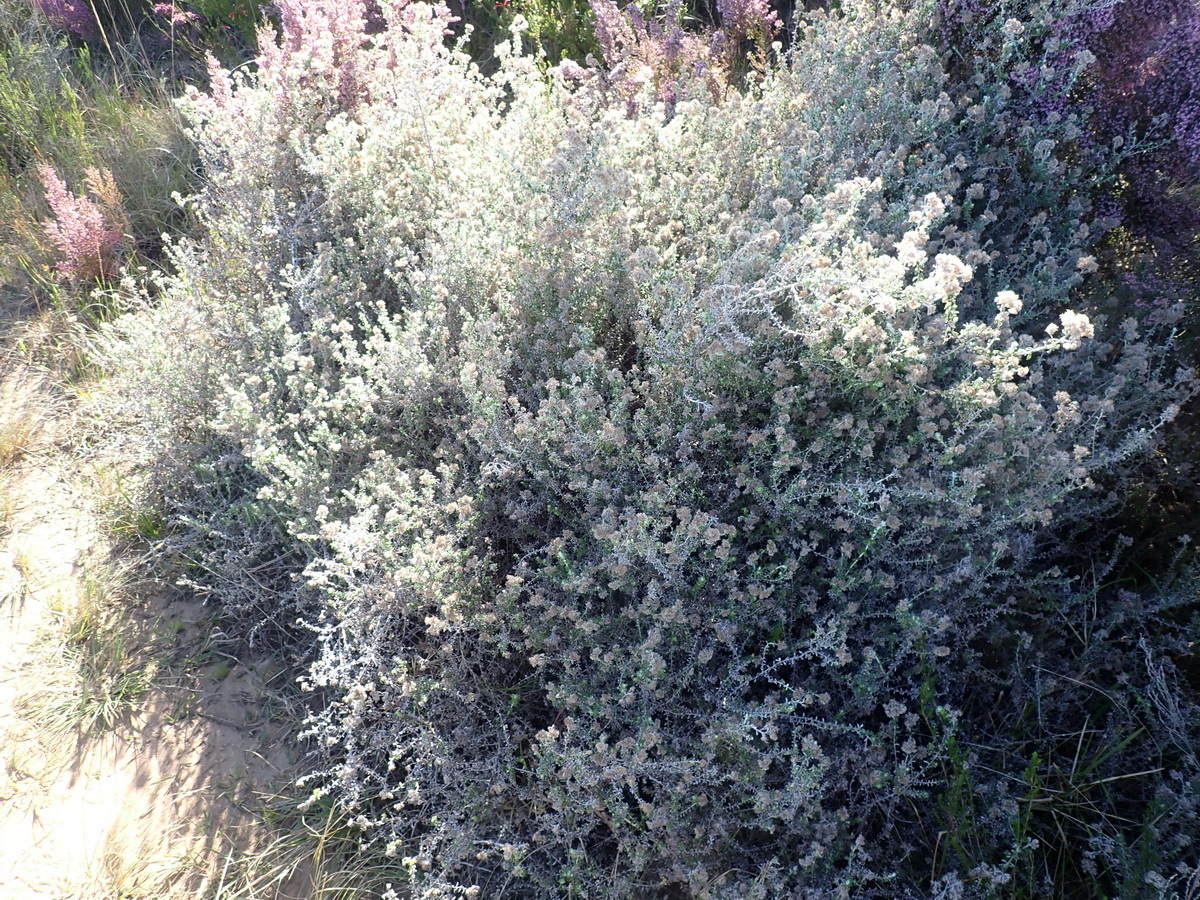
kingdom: Plantae
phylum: Tracheophyta
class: Magnoliopsida
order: Asterales
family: Asteraceae
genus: Plecostachys
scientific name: Plecostachys serpyllifolia
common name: Petite licorice
